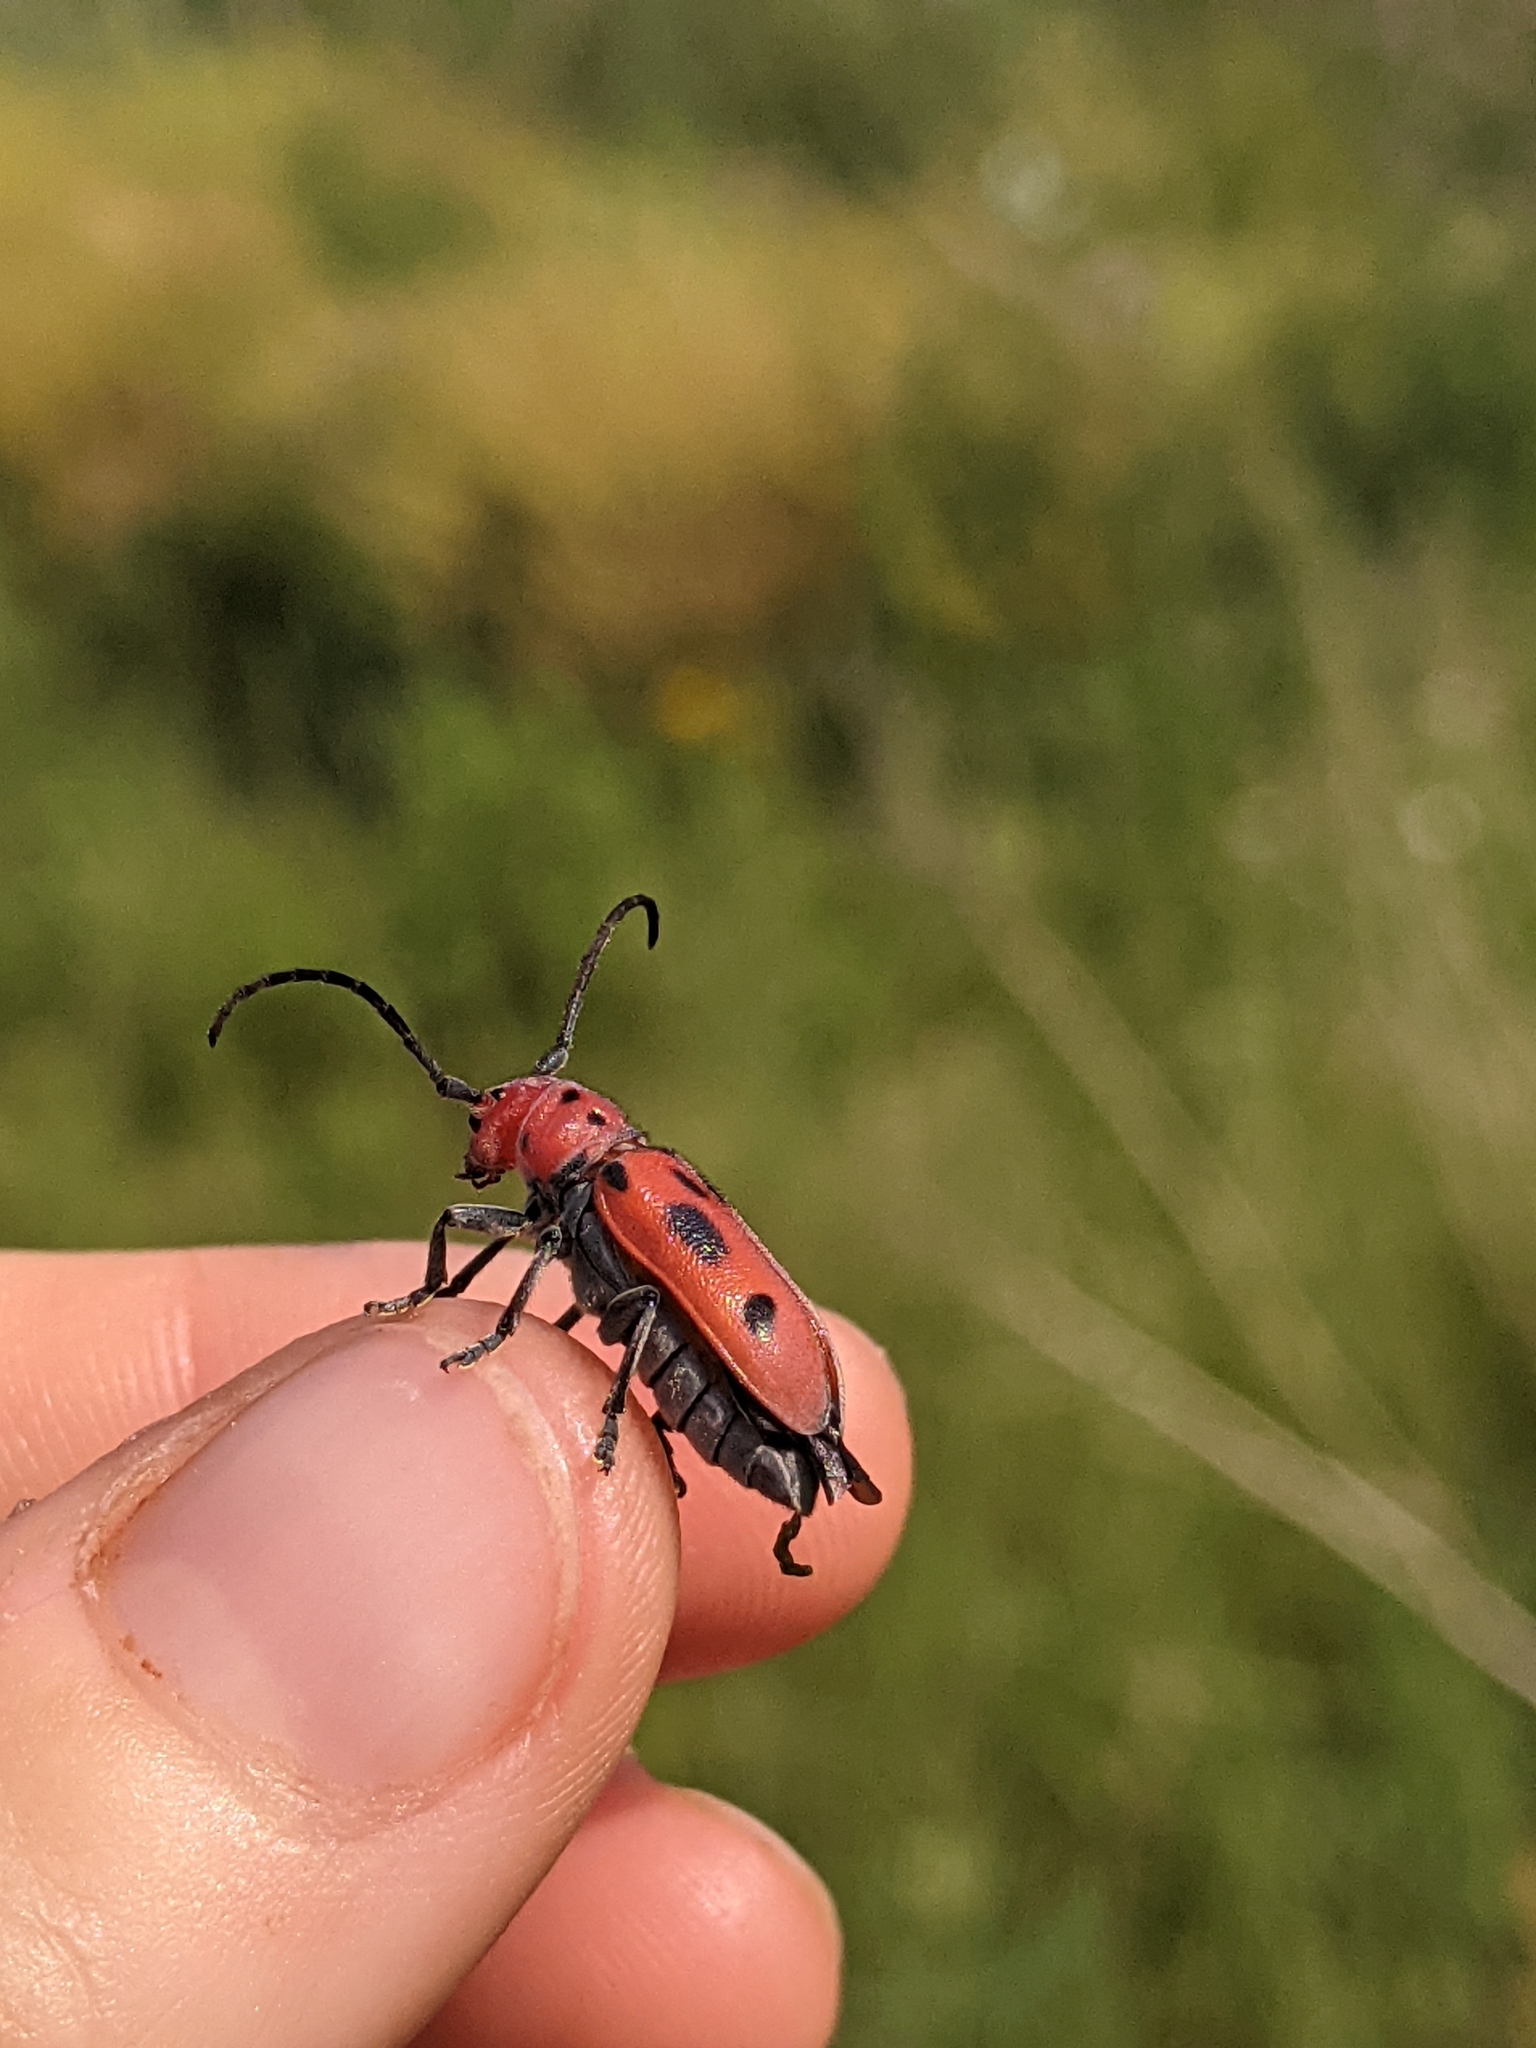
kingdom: Animalia
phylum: Arthropoda
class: Insecta
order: Coleoptera
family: Cerambycidae
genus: Tetraopes
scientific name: Tetraopes tetrophthalmus
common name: Red milkweed beetle
